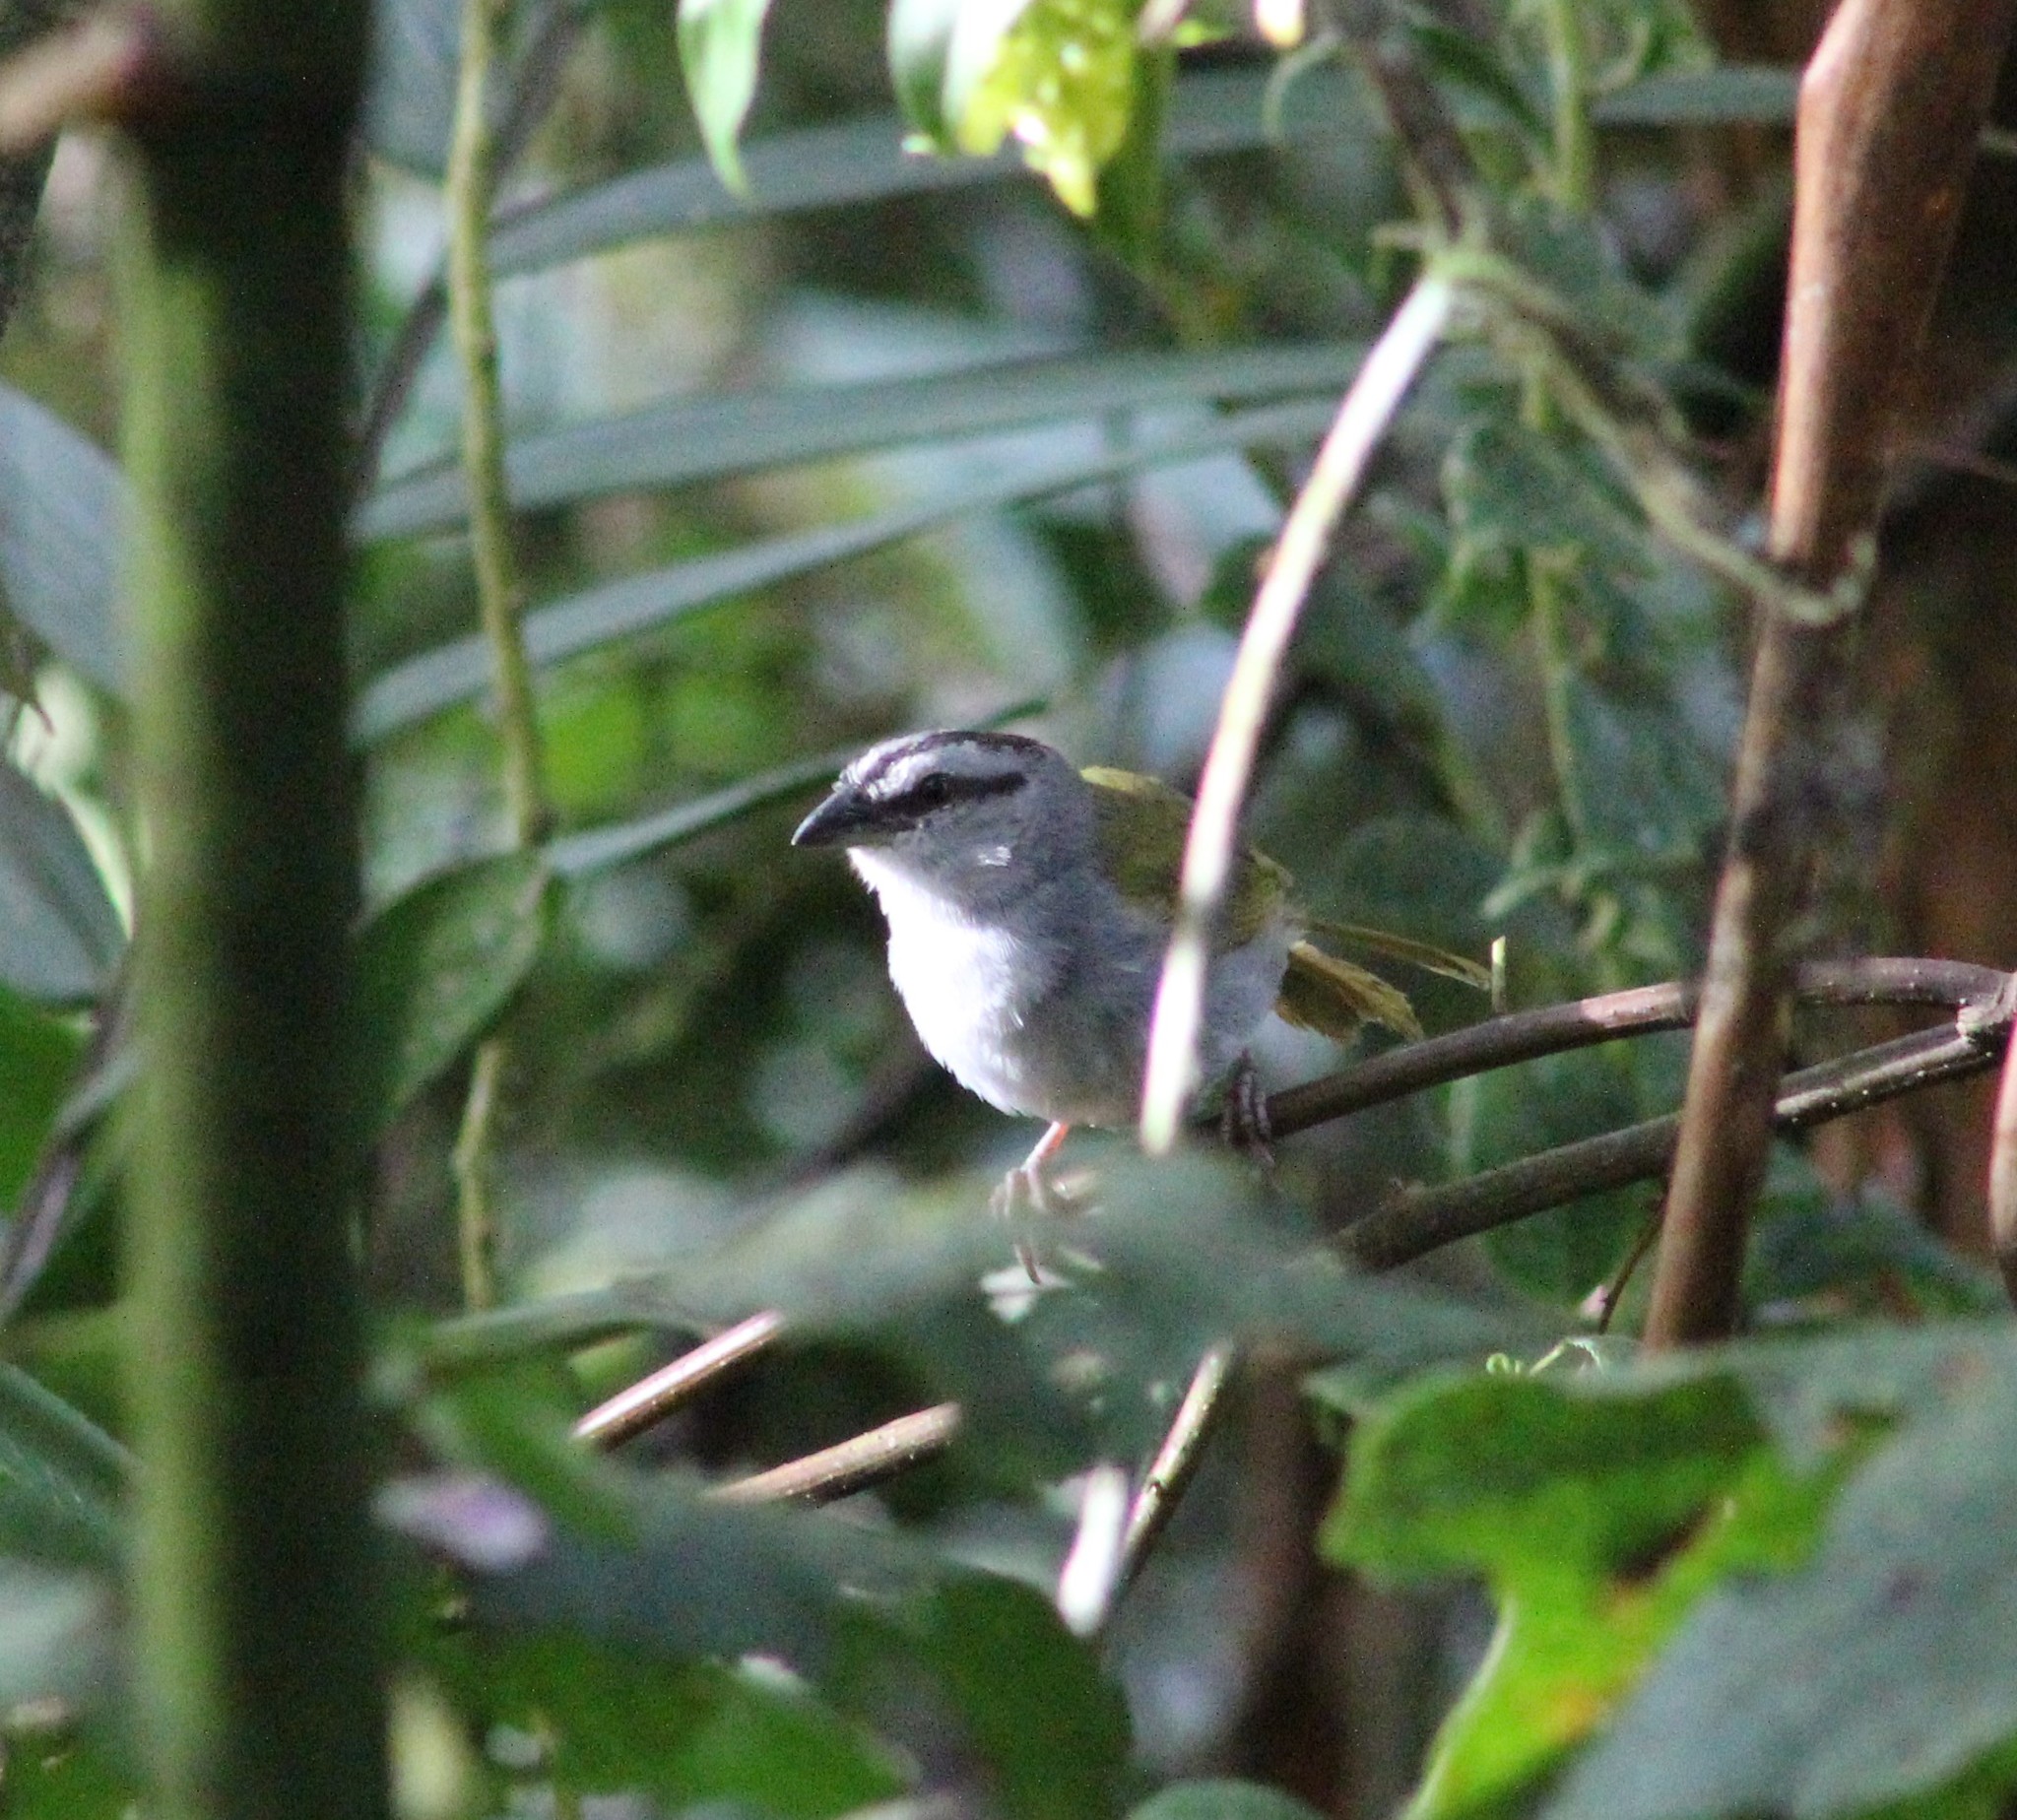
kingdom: Animalia
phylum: Chordata
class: Aves
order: Passeriformes
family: Passerellidae
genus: Arremonops
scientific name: Arremonops conirostris
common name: Black-striped sparrow
